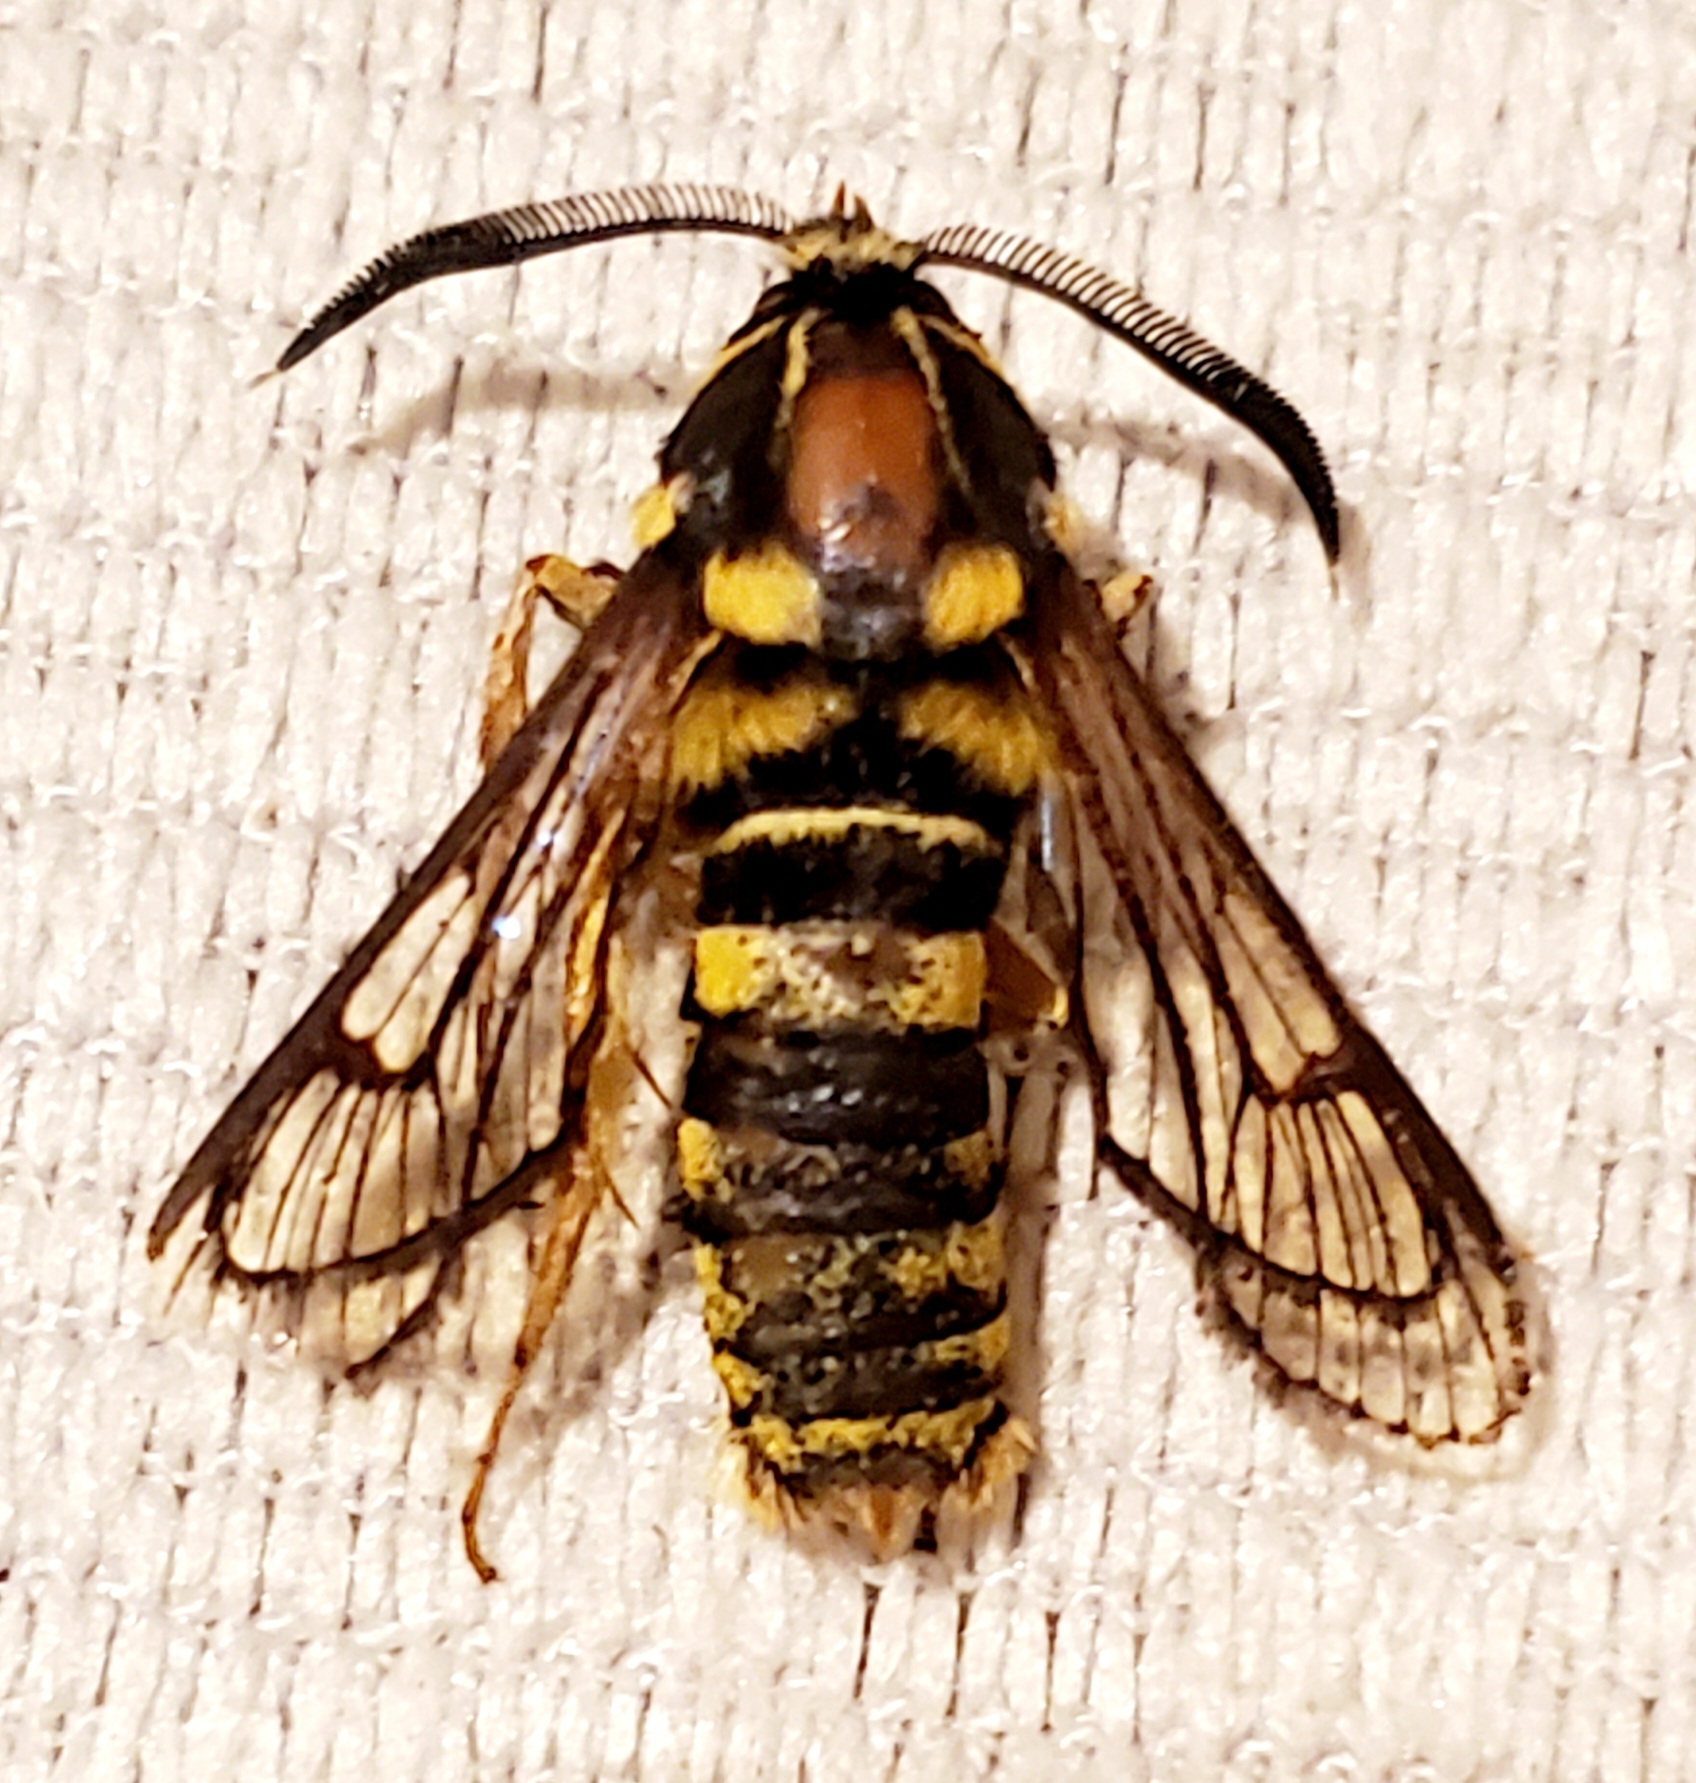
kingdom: Animalia
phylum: Arthropoda
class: Insecta
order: Lepidoptera
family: Sesiidae
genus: Sesia
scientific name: Sesia tibiale
